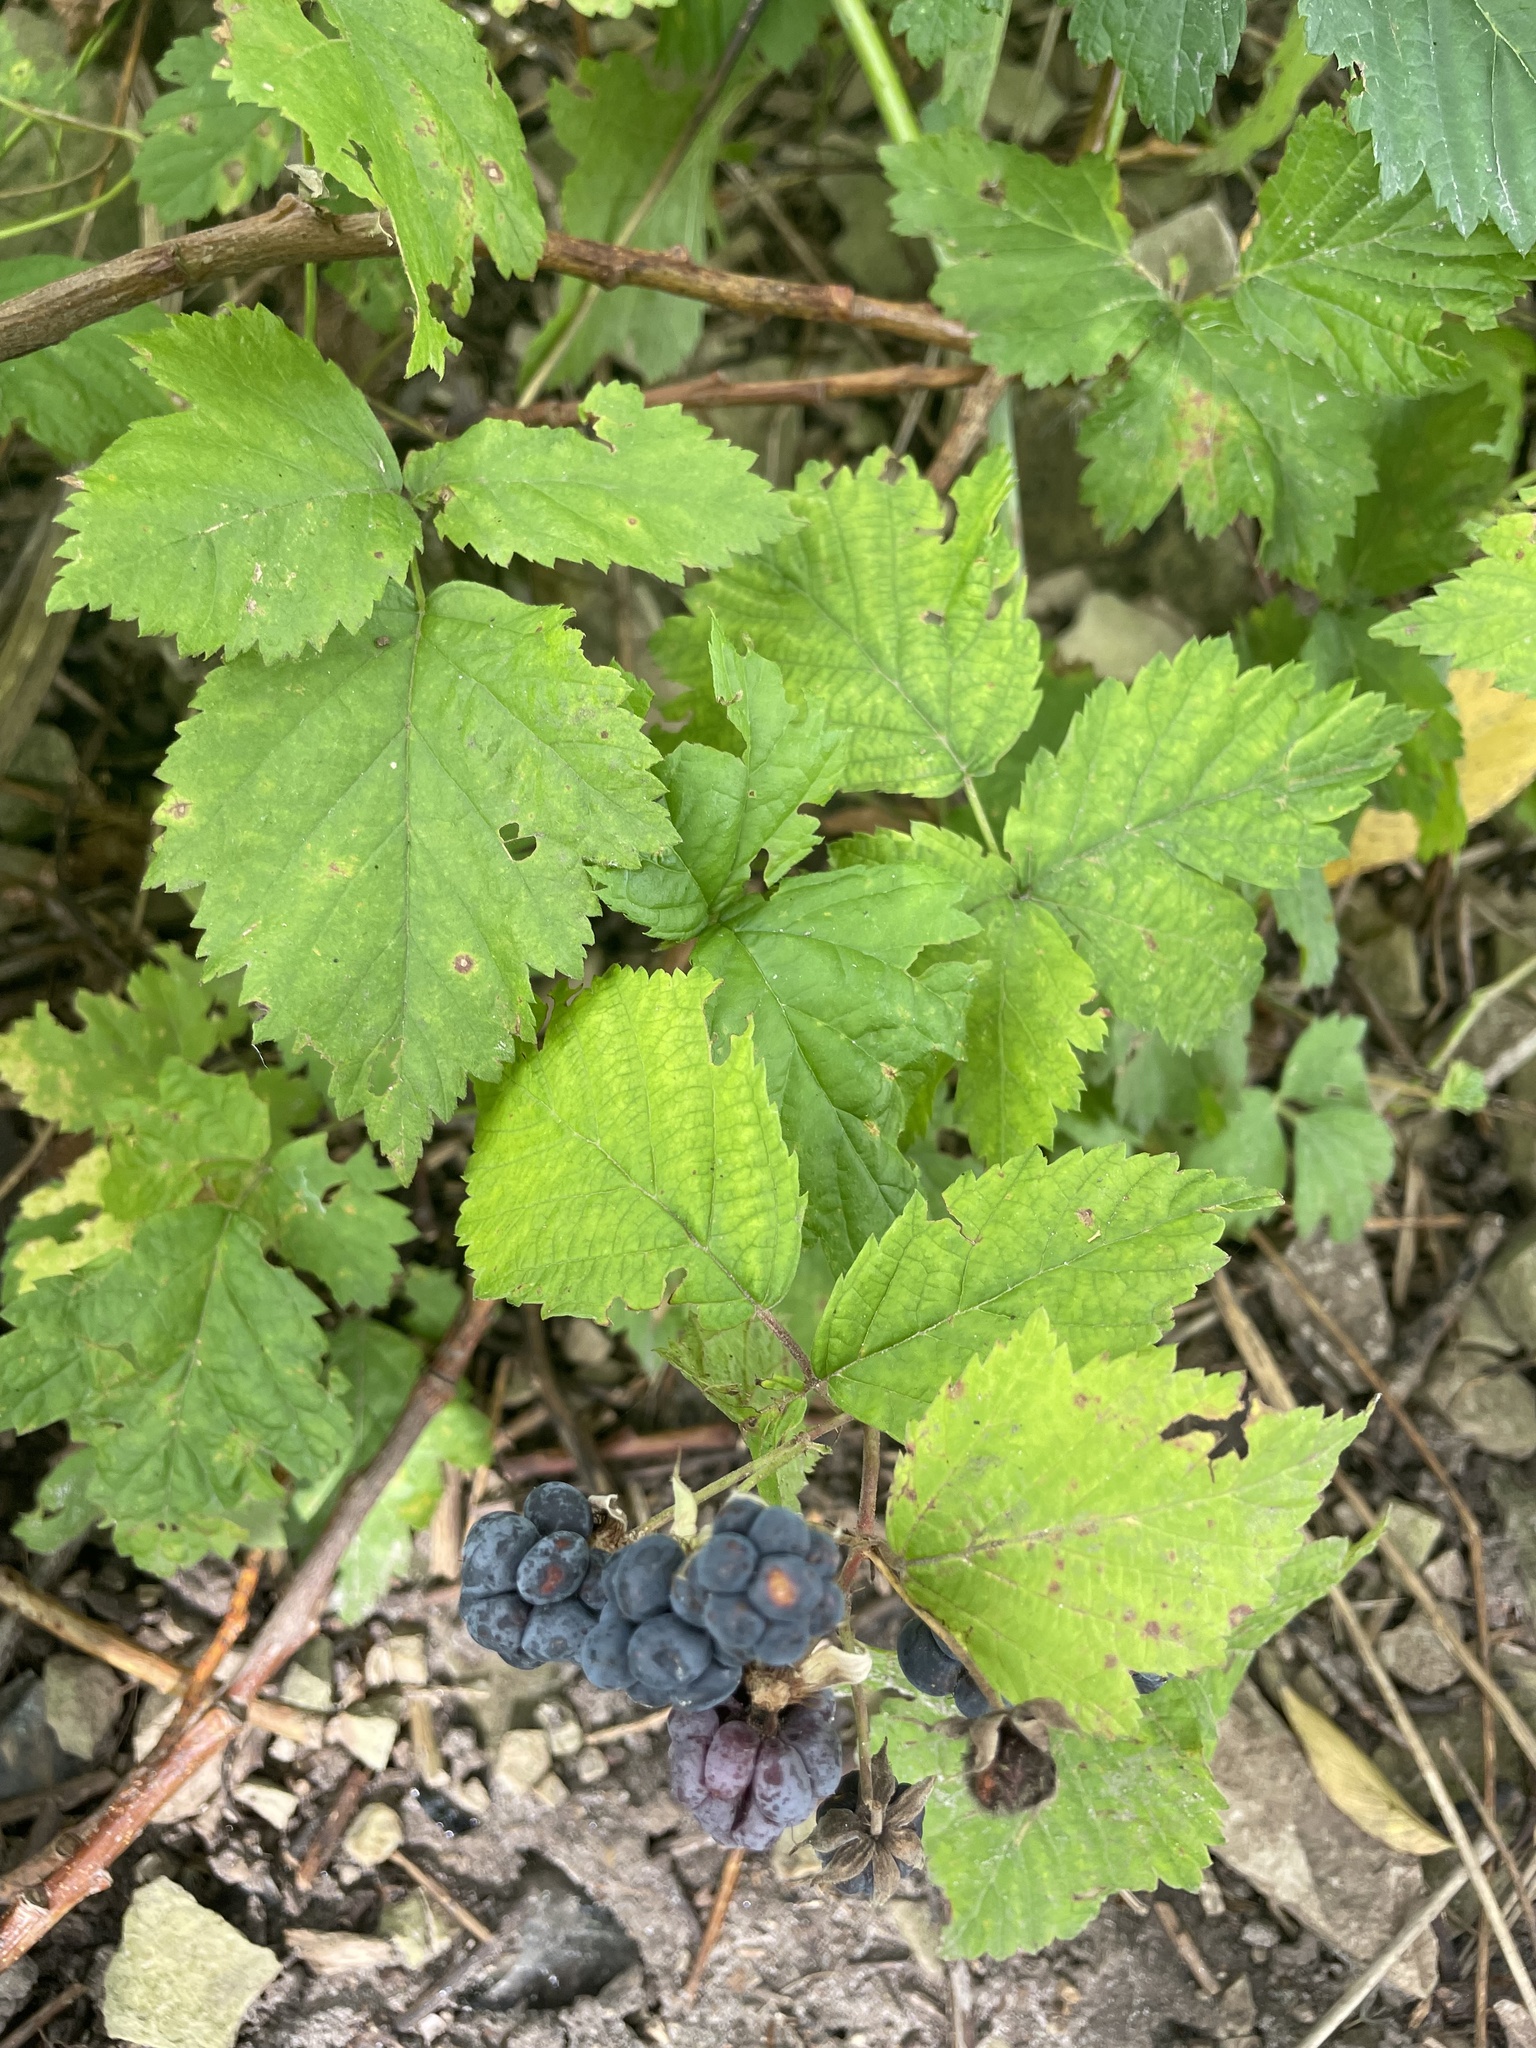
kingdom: Plantae
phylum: Tracheophyta
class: Magnoliopsida
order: Rosales
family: Rosaceae
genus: Rubus
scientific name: Rubus caesius
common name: Dewberry
